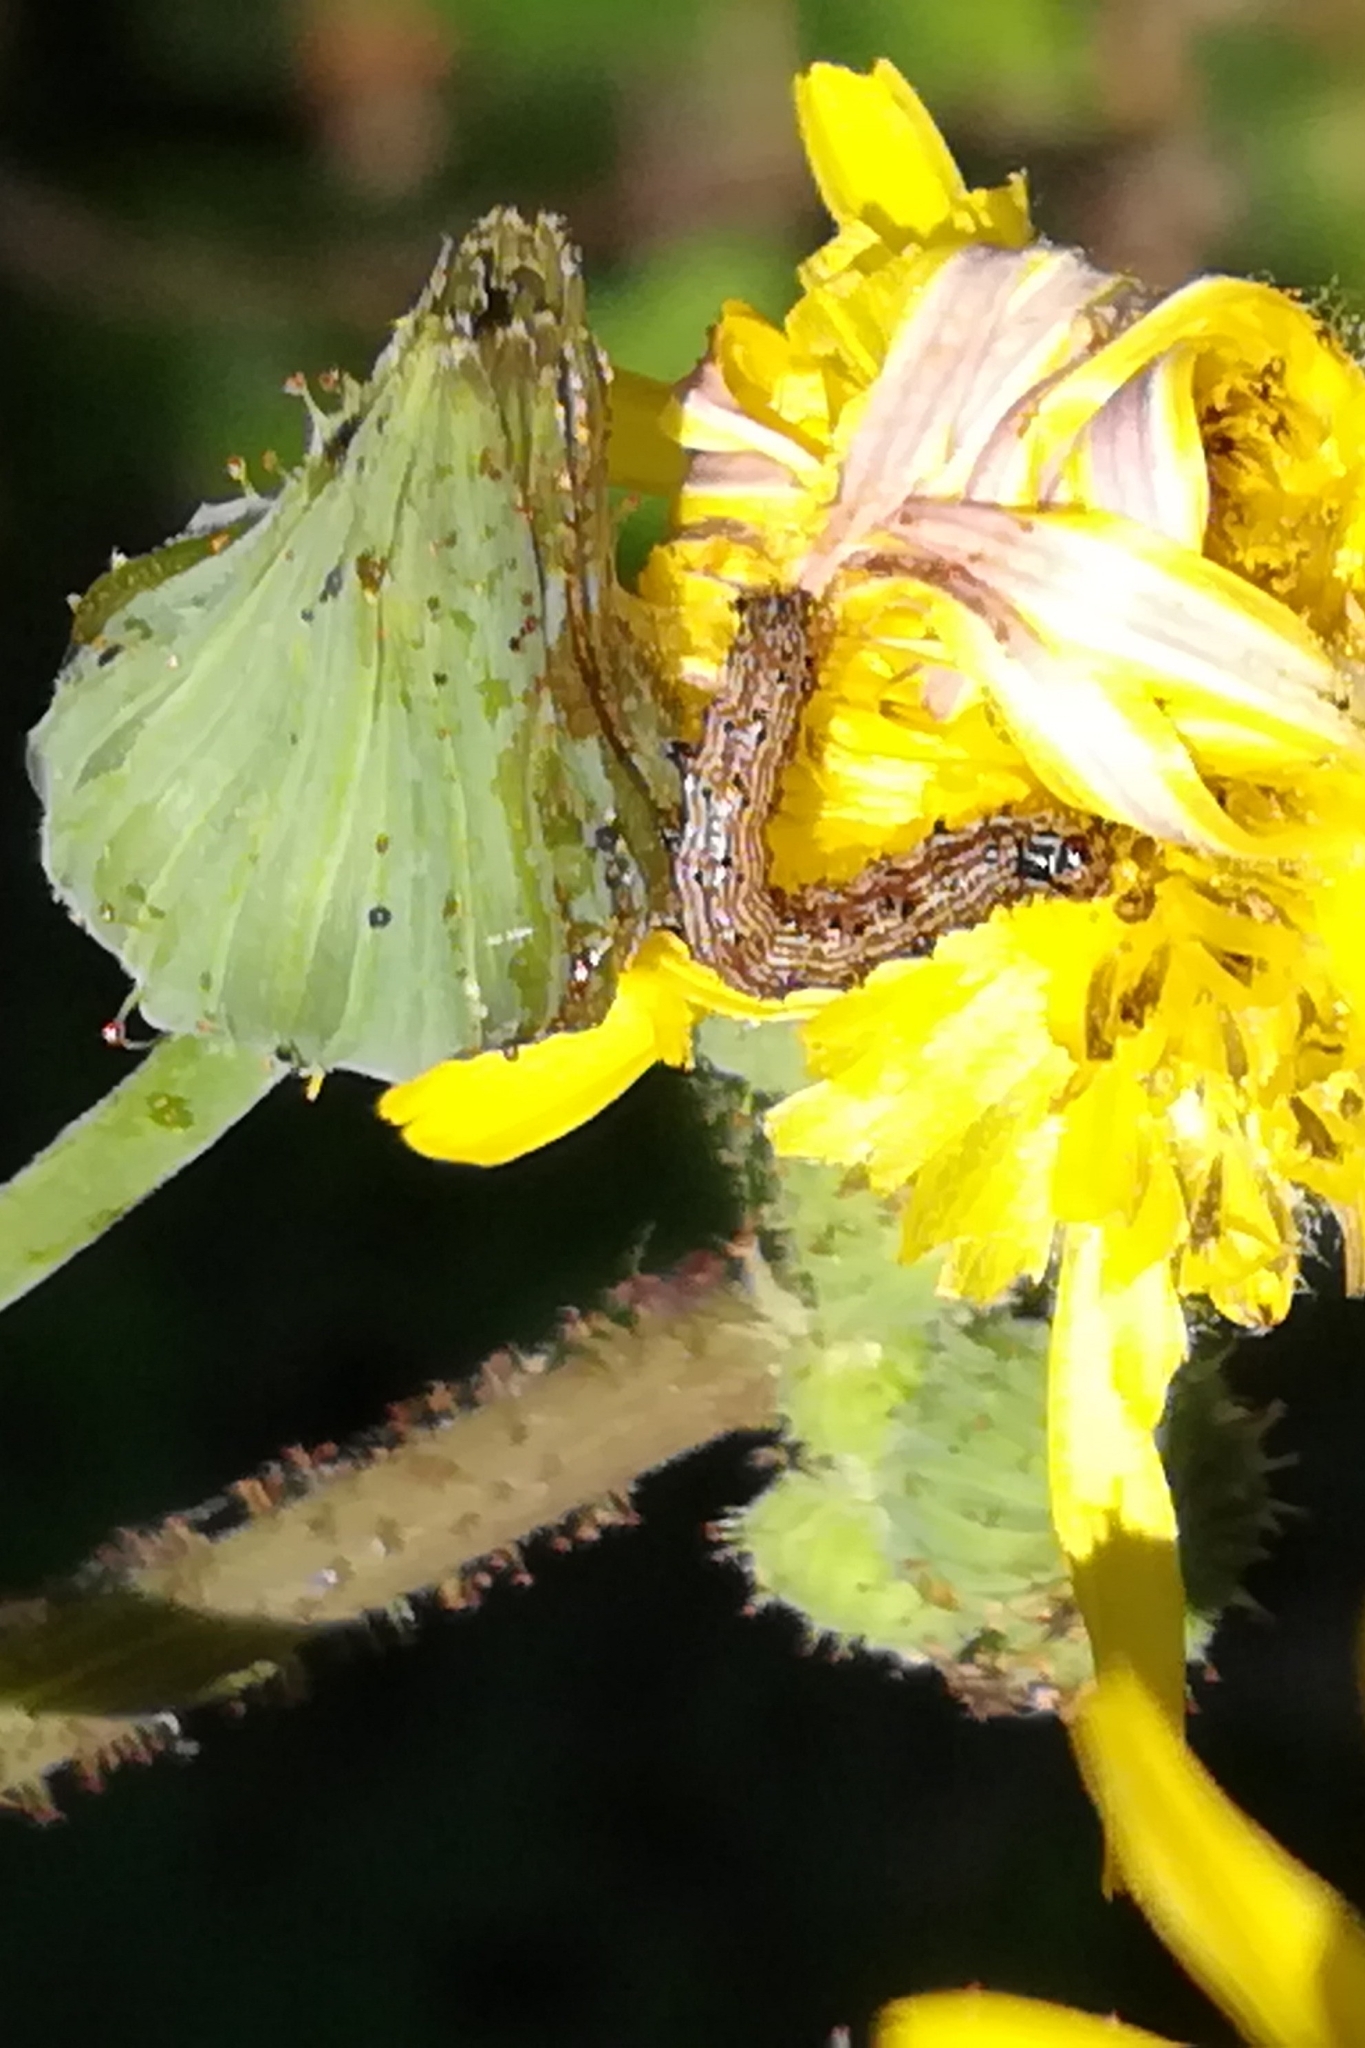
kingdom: Animalia
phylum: Arthropoda
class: Insecta
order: Lepidoptera
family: Noctuidae
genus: Helicoverpa
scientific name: Helicoverpa armigera
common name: Cotton bollworm
